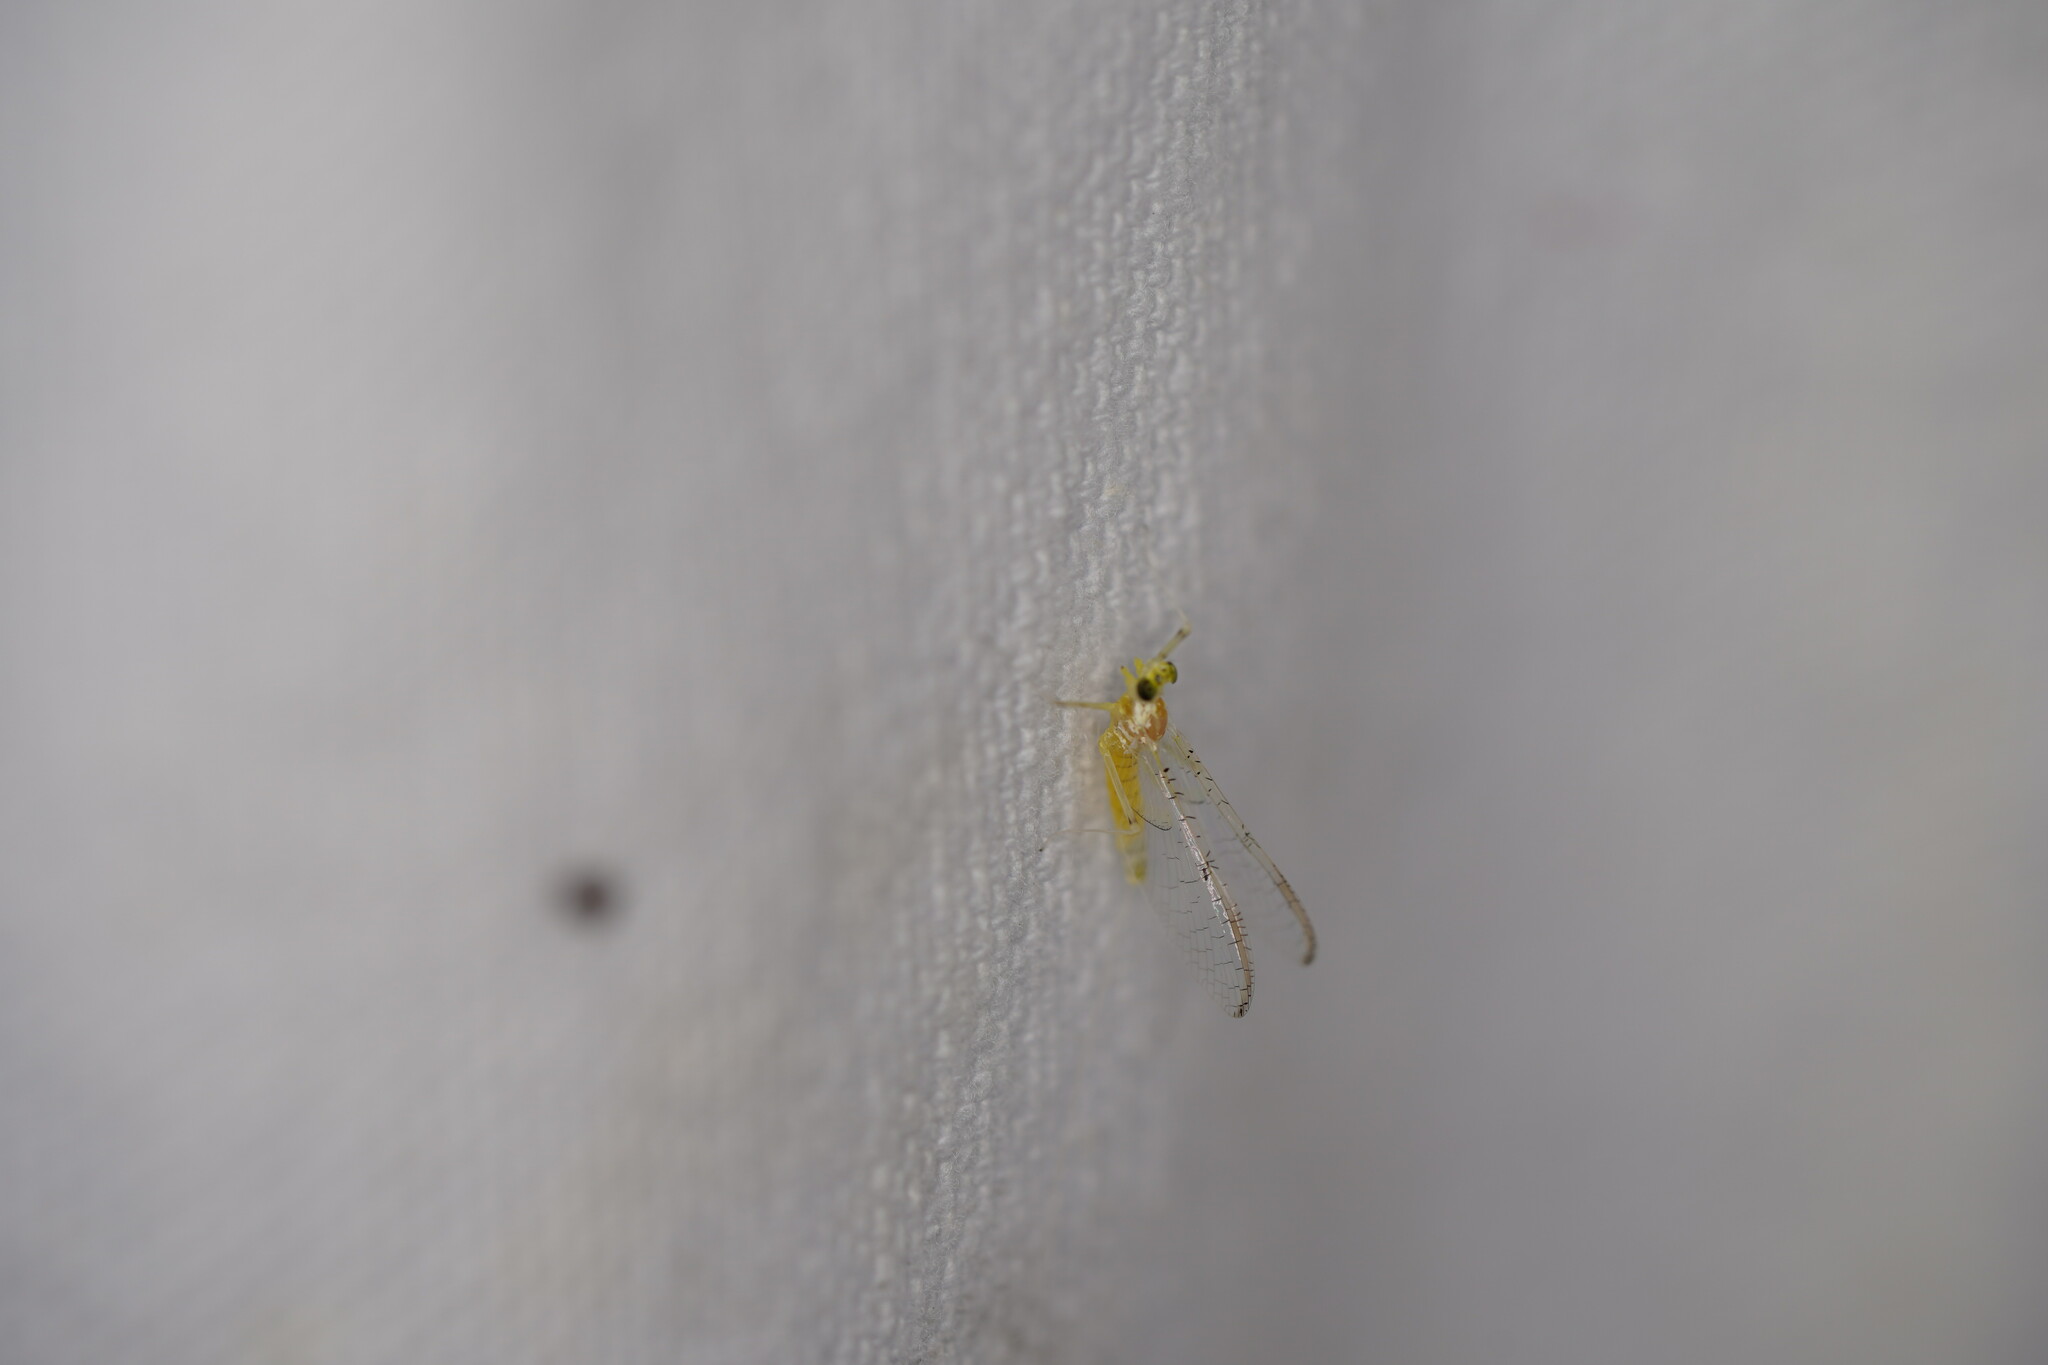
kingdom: Animalia
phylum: Arthropoda
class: Insecta
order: Ephemeroptera
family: Heptageniidae
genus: Stenacron
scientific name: Stenacron interpunctatum
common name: Orange cahill
